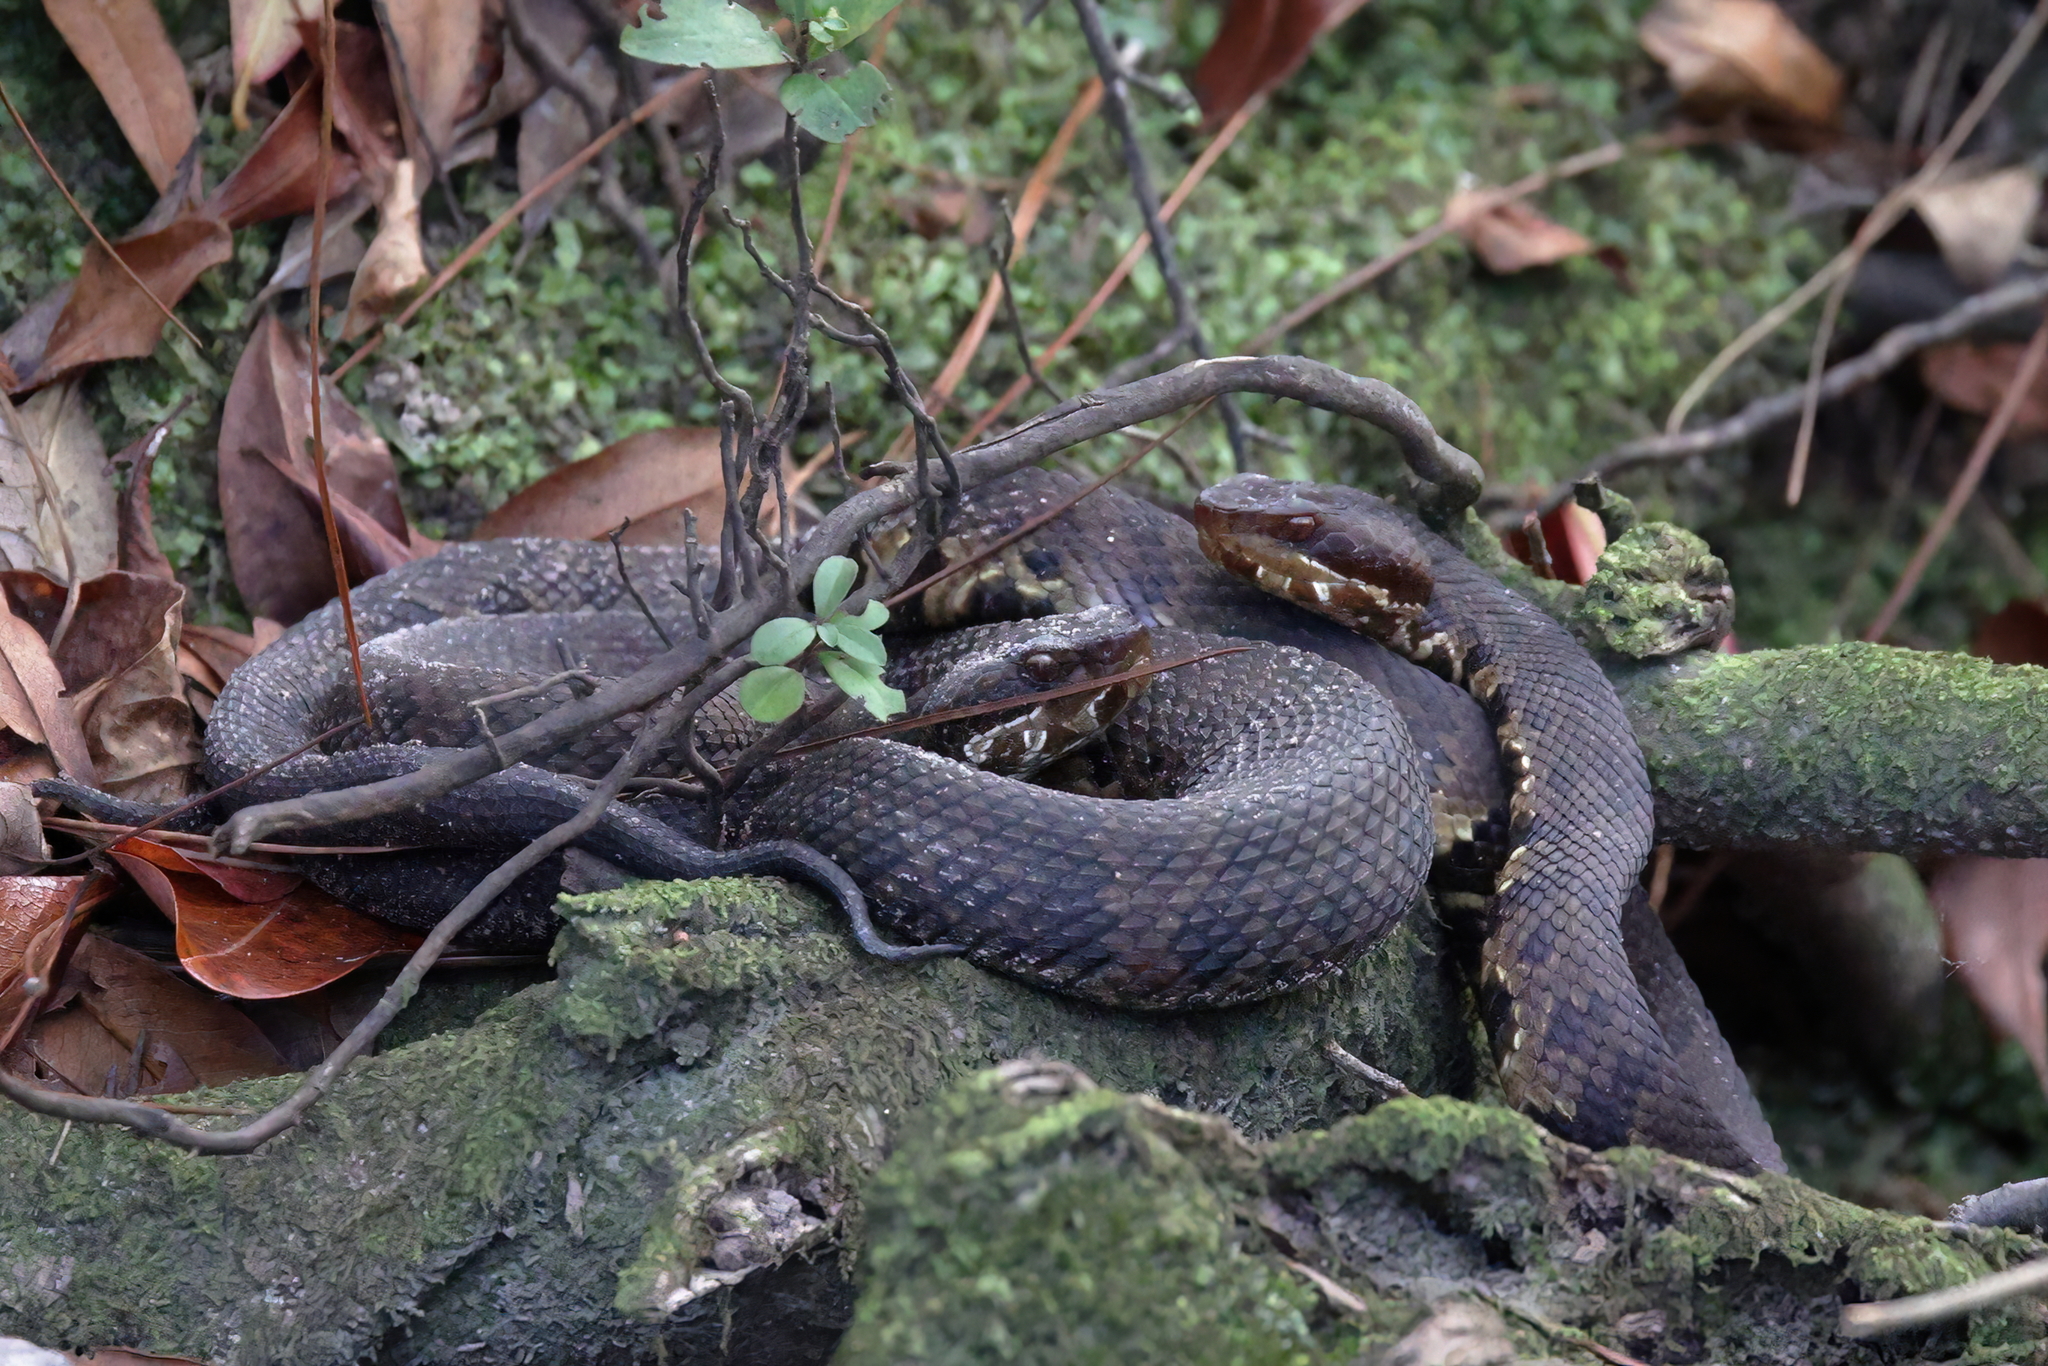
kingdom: Animalia
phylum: Chordata
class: Squamata
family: Viperidae
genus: Agkistrodon
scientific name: Agkistrodon piscivorus
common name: Cottonmouth
